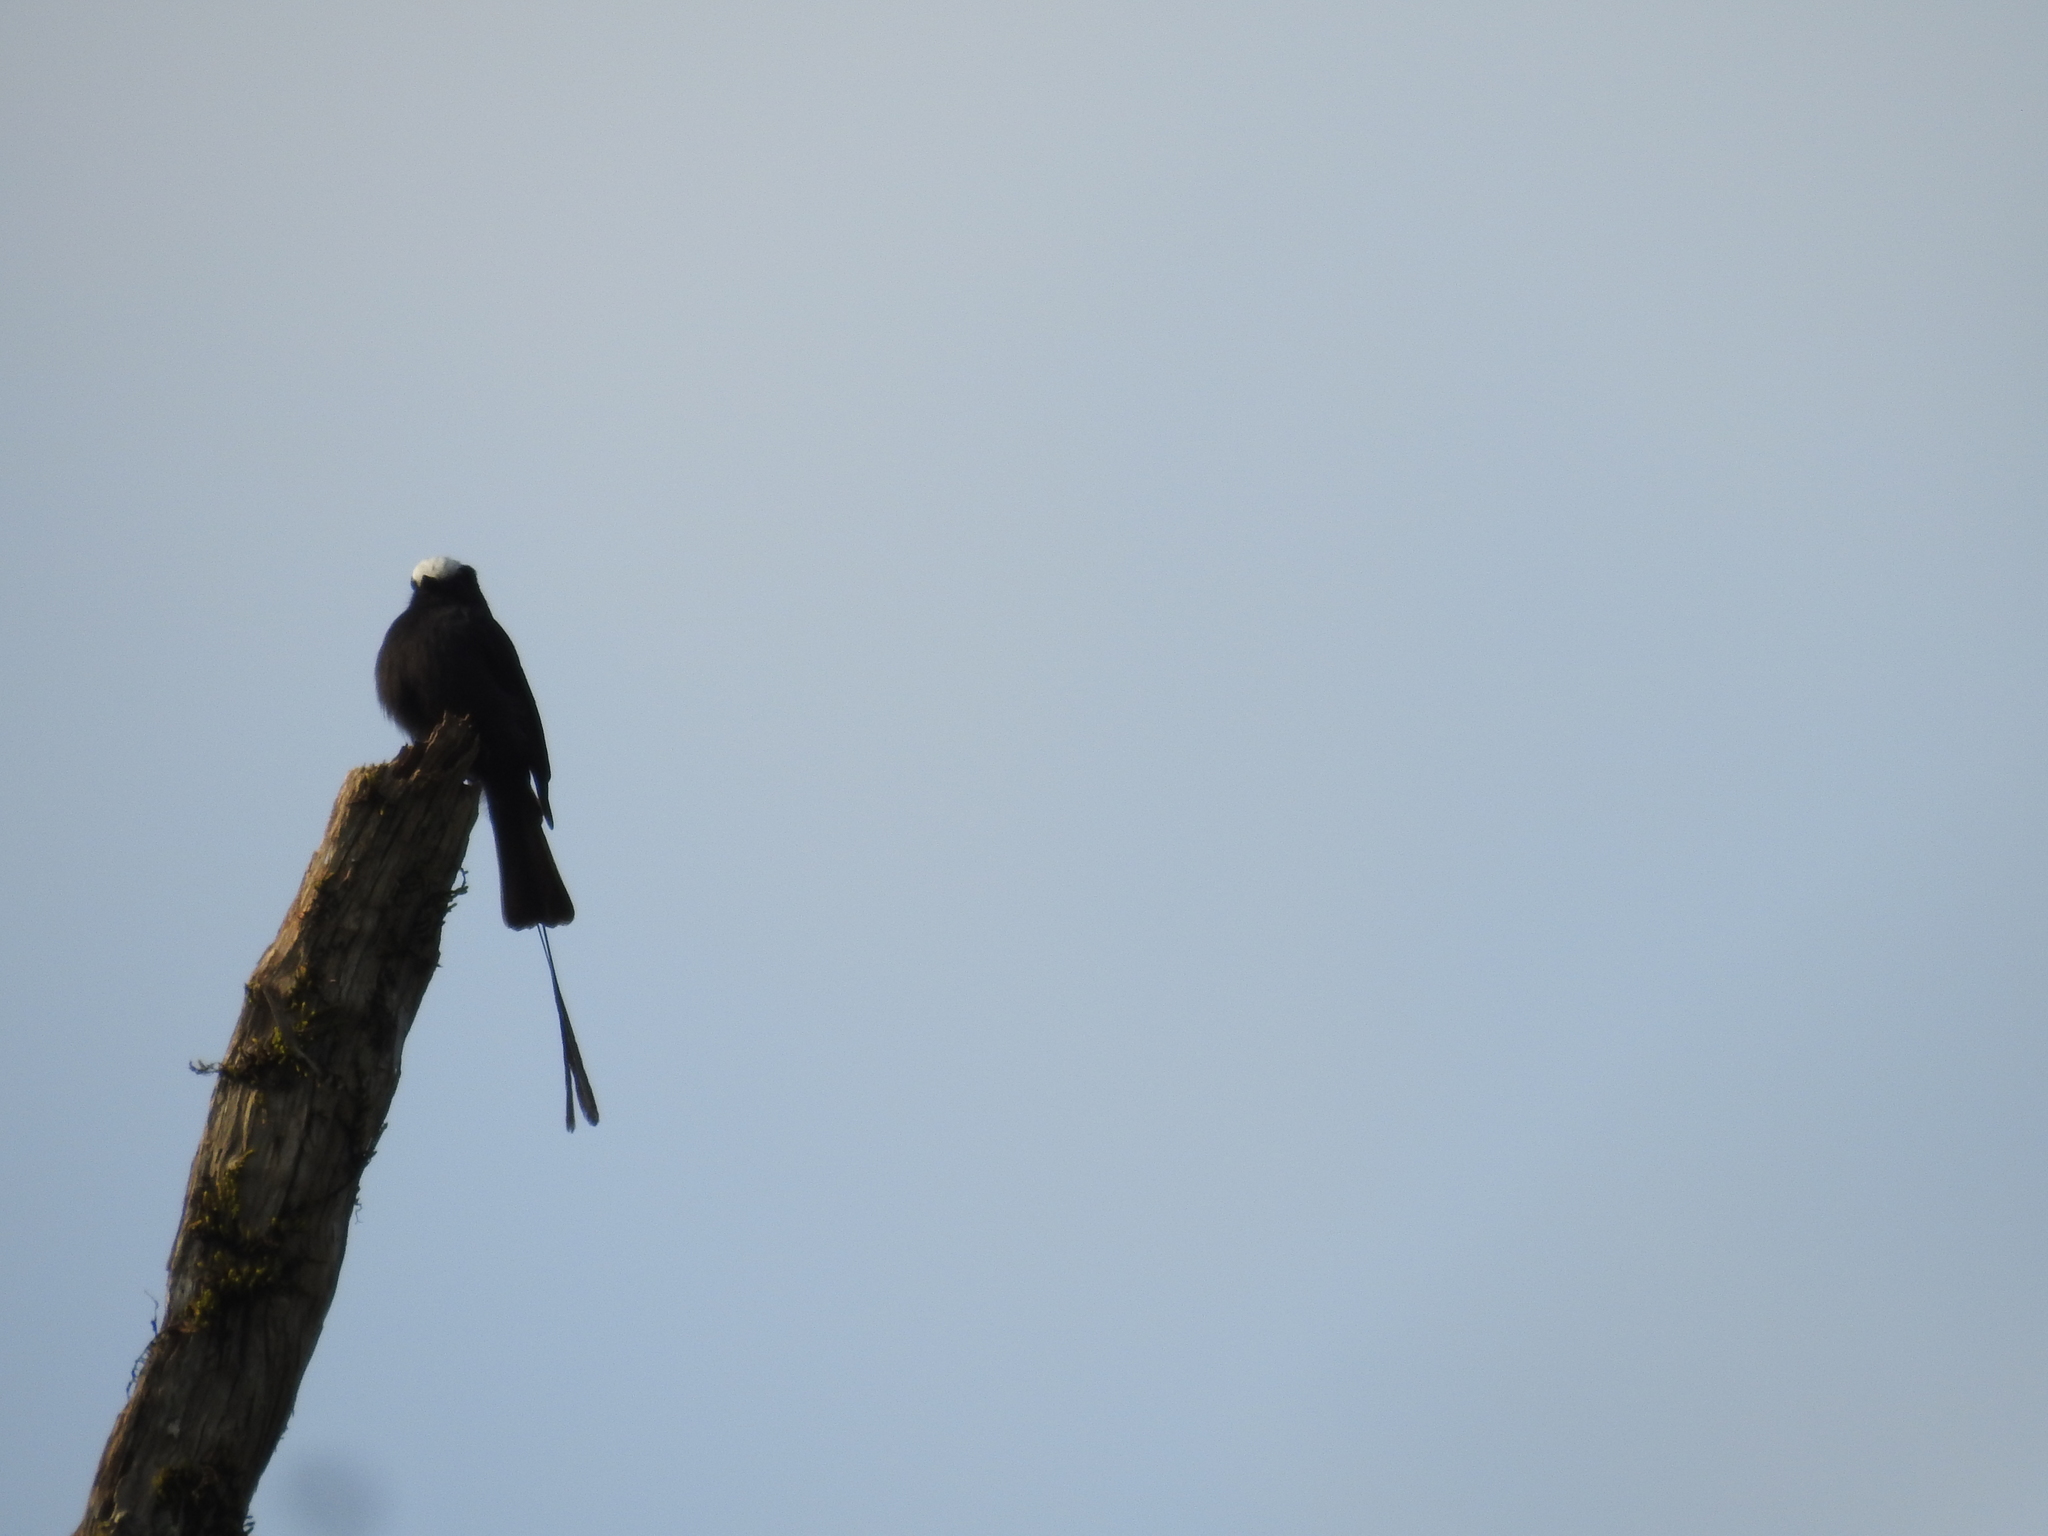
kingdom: Animalia
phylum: Chordata
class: Aves
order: Passeriformes
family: Tyrannidae
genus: Colonia
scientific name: Colonia colonus
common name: Long-tailed tyrant
